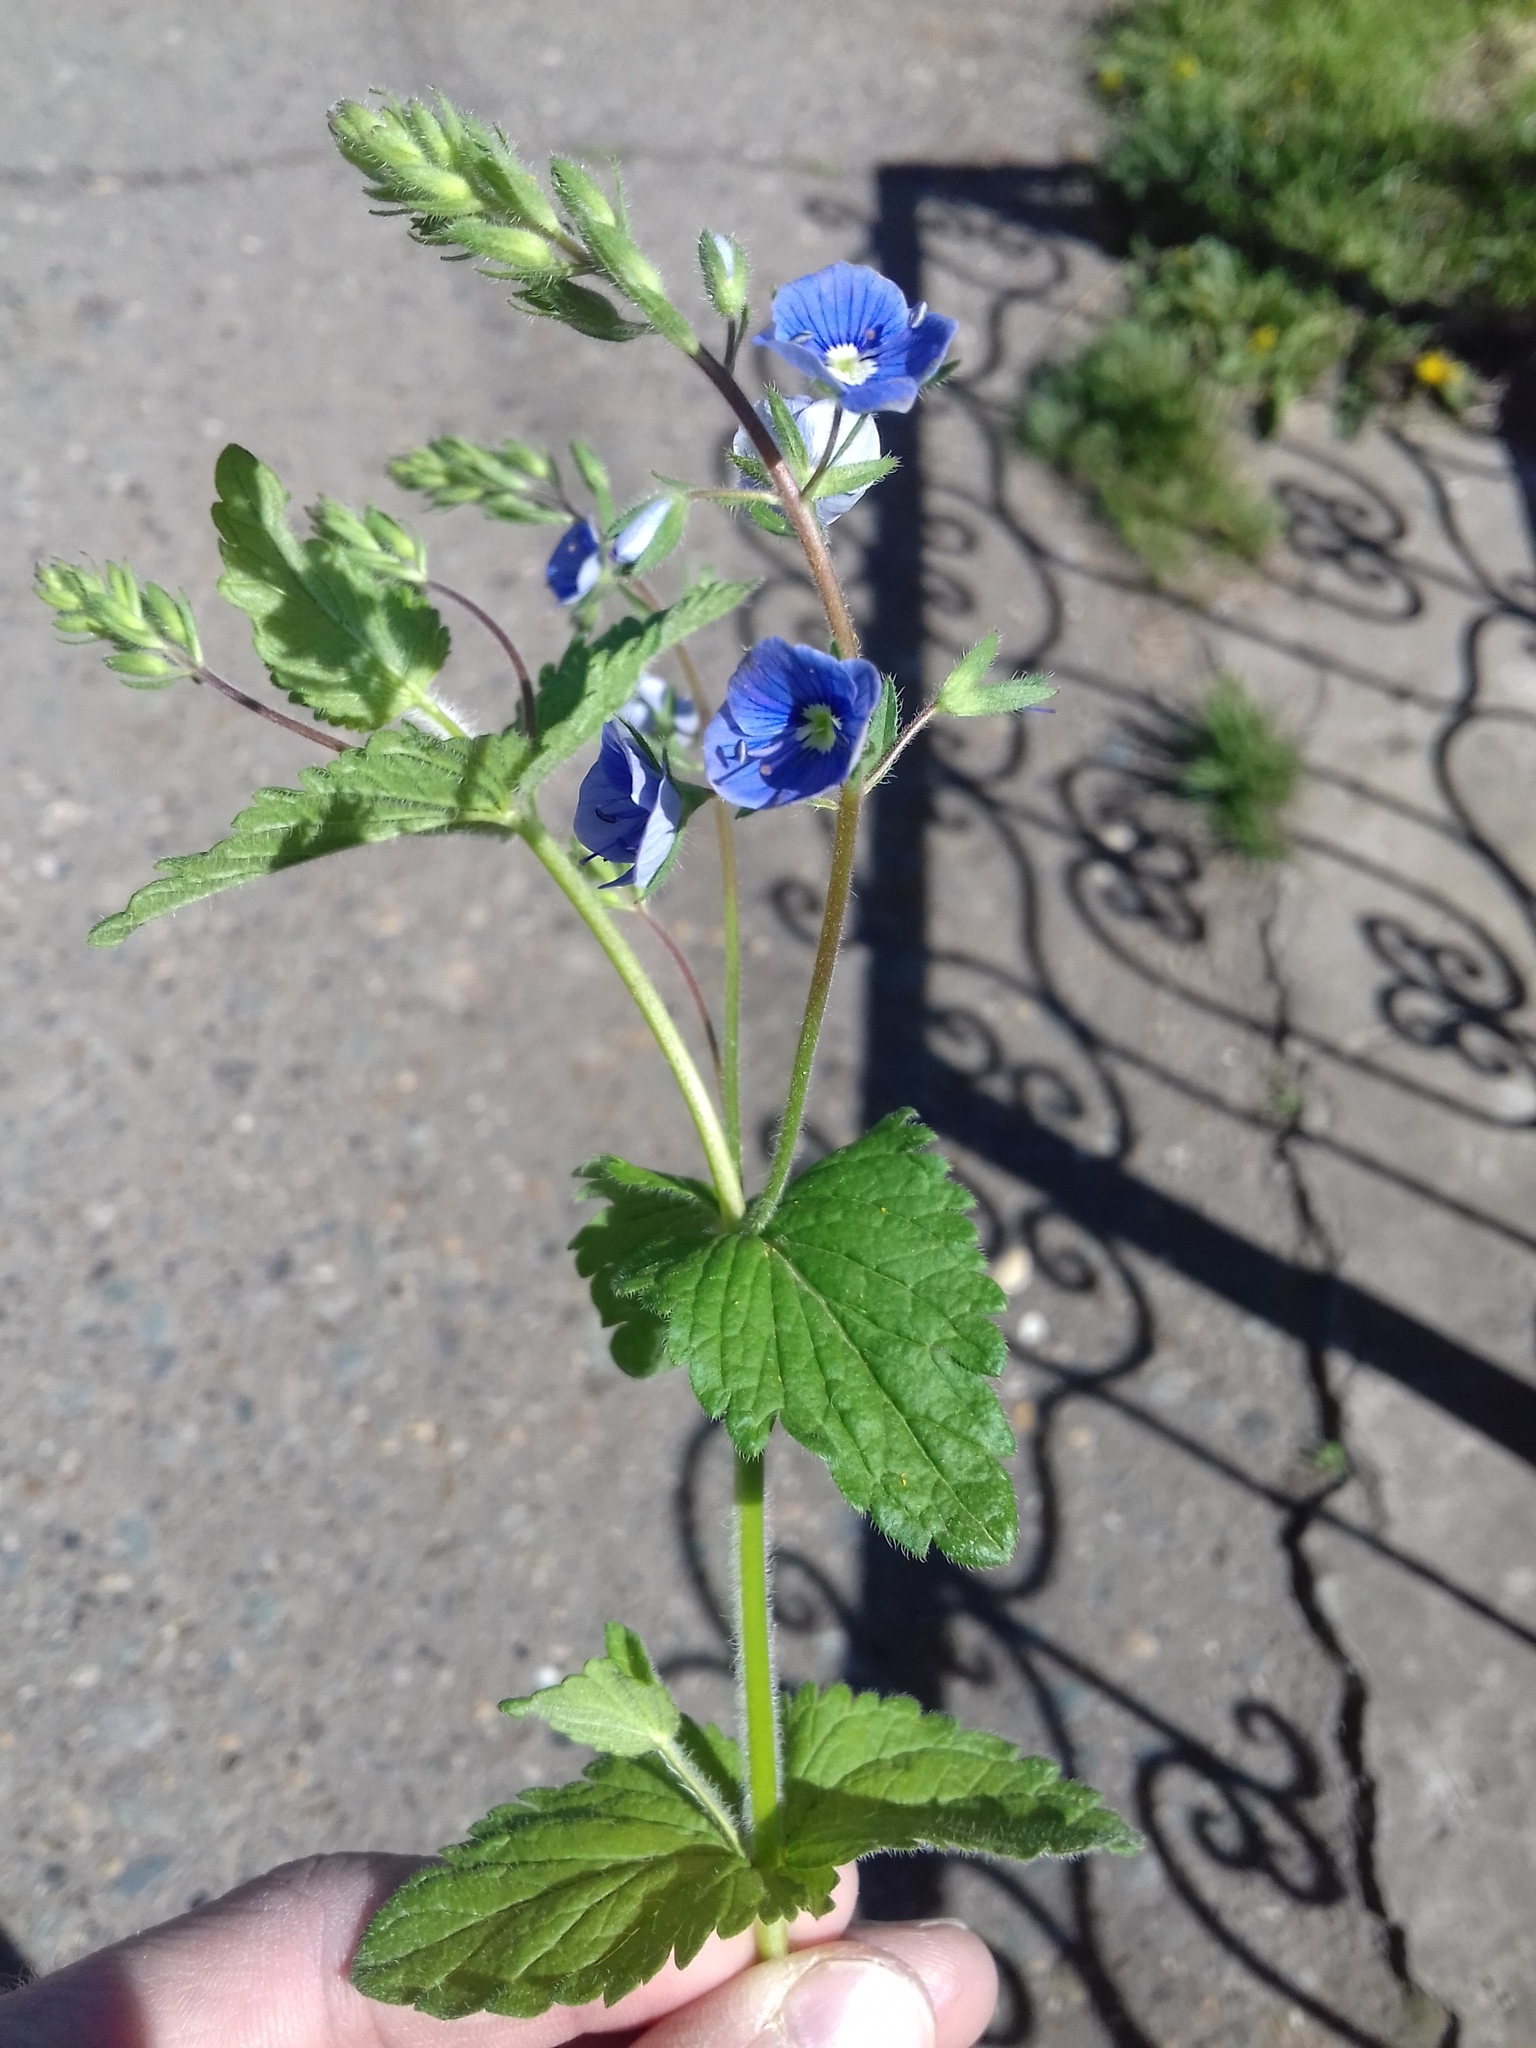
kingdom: Plantae
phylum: Tracheophyta
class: Magnoliopsida
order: Lamiales
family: Plantaginaceae
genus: Veronica
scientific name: Veronica chamaedrys
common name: Germander speedwell
